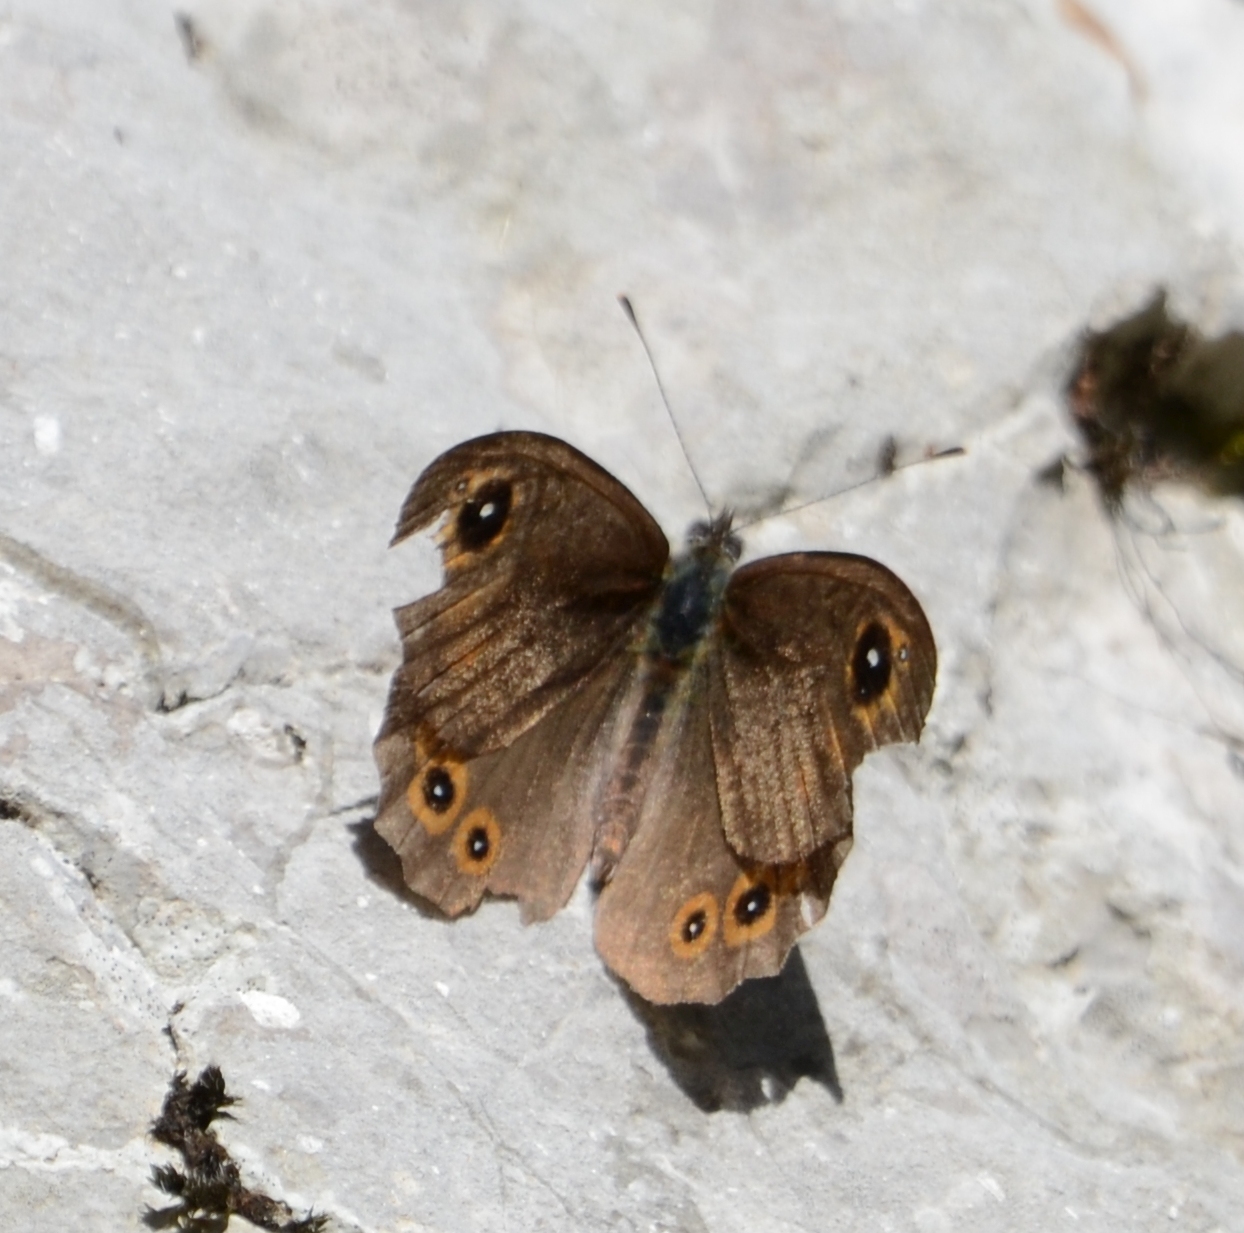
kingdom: Animalia
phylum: Arthropoda
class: Insecta
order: Lepidoptera
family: Nymphalidae
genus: Pararge
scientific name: Pararge Lasiommata maera
